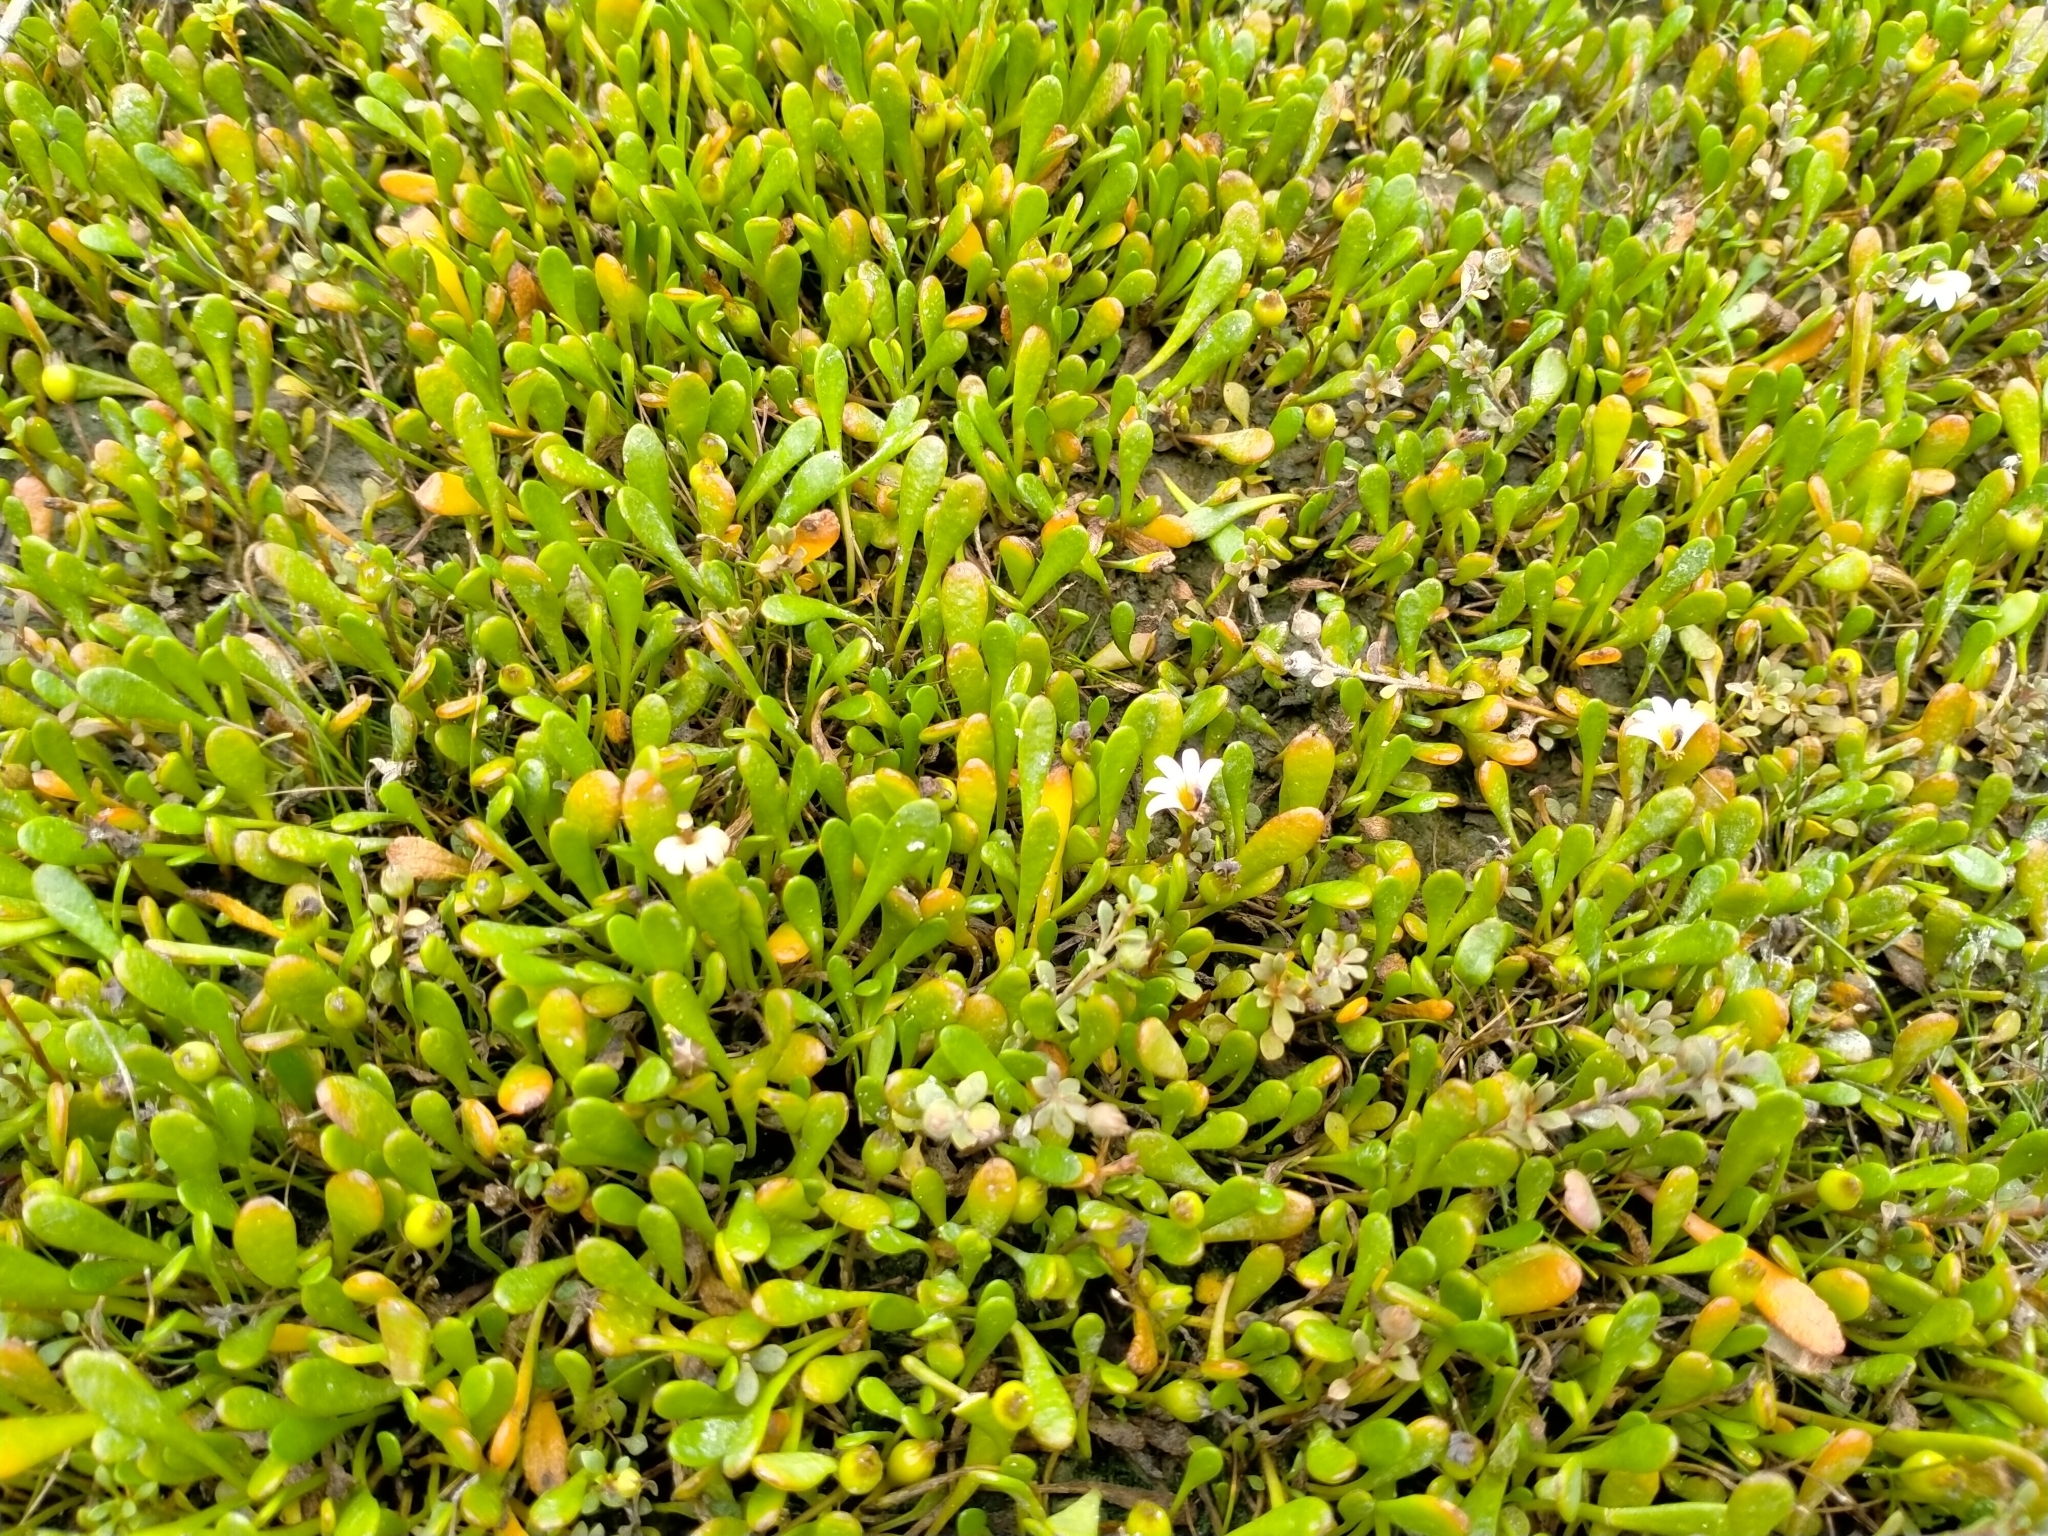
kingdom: Plantae
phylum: Tracheophyta
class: Magnoliopsida
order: Asterales
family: Goodeniaceae
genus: Goodenia
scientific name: Goodenia radicans
